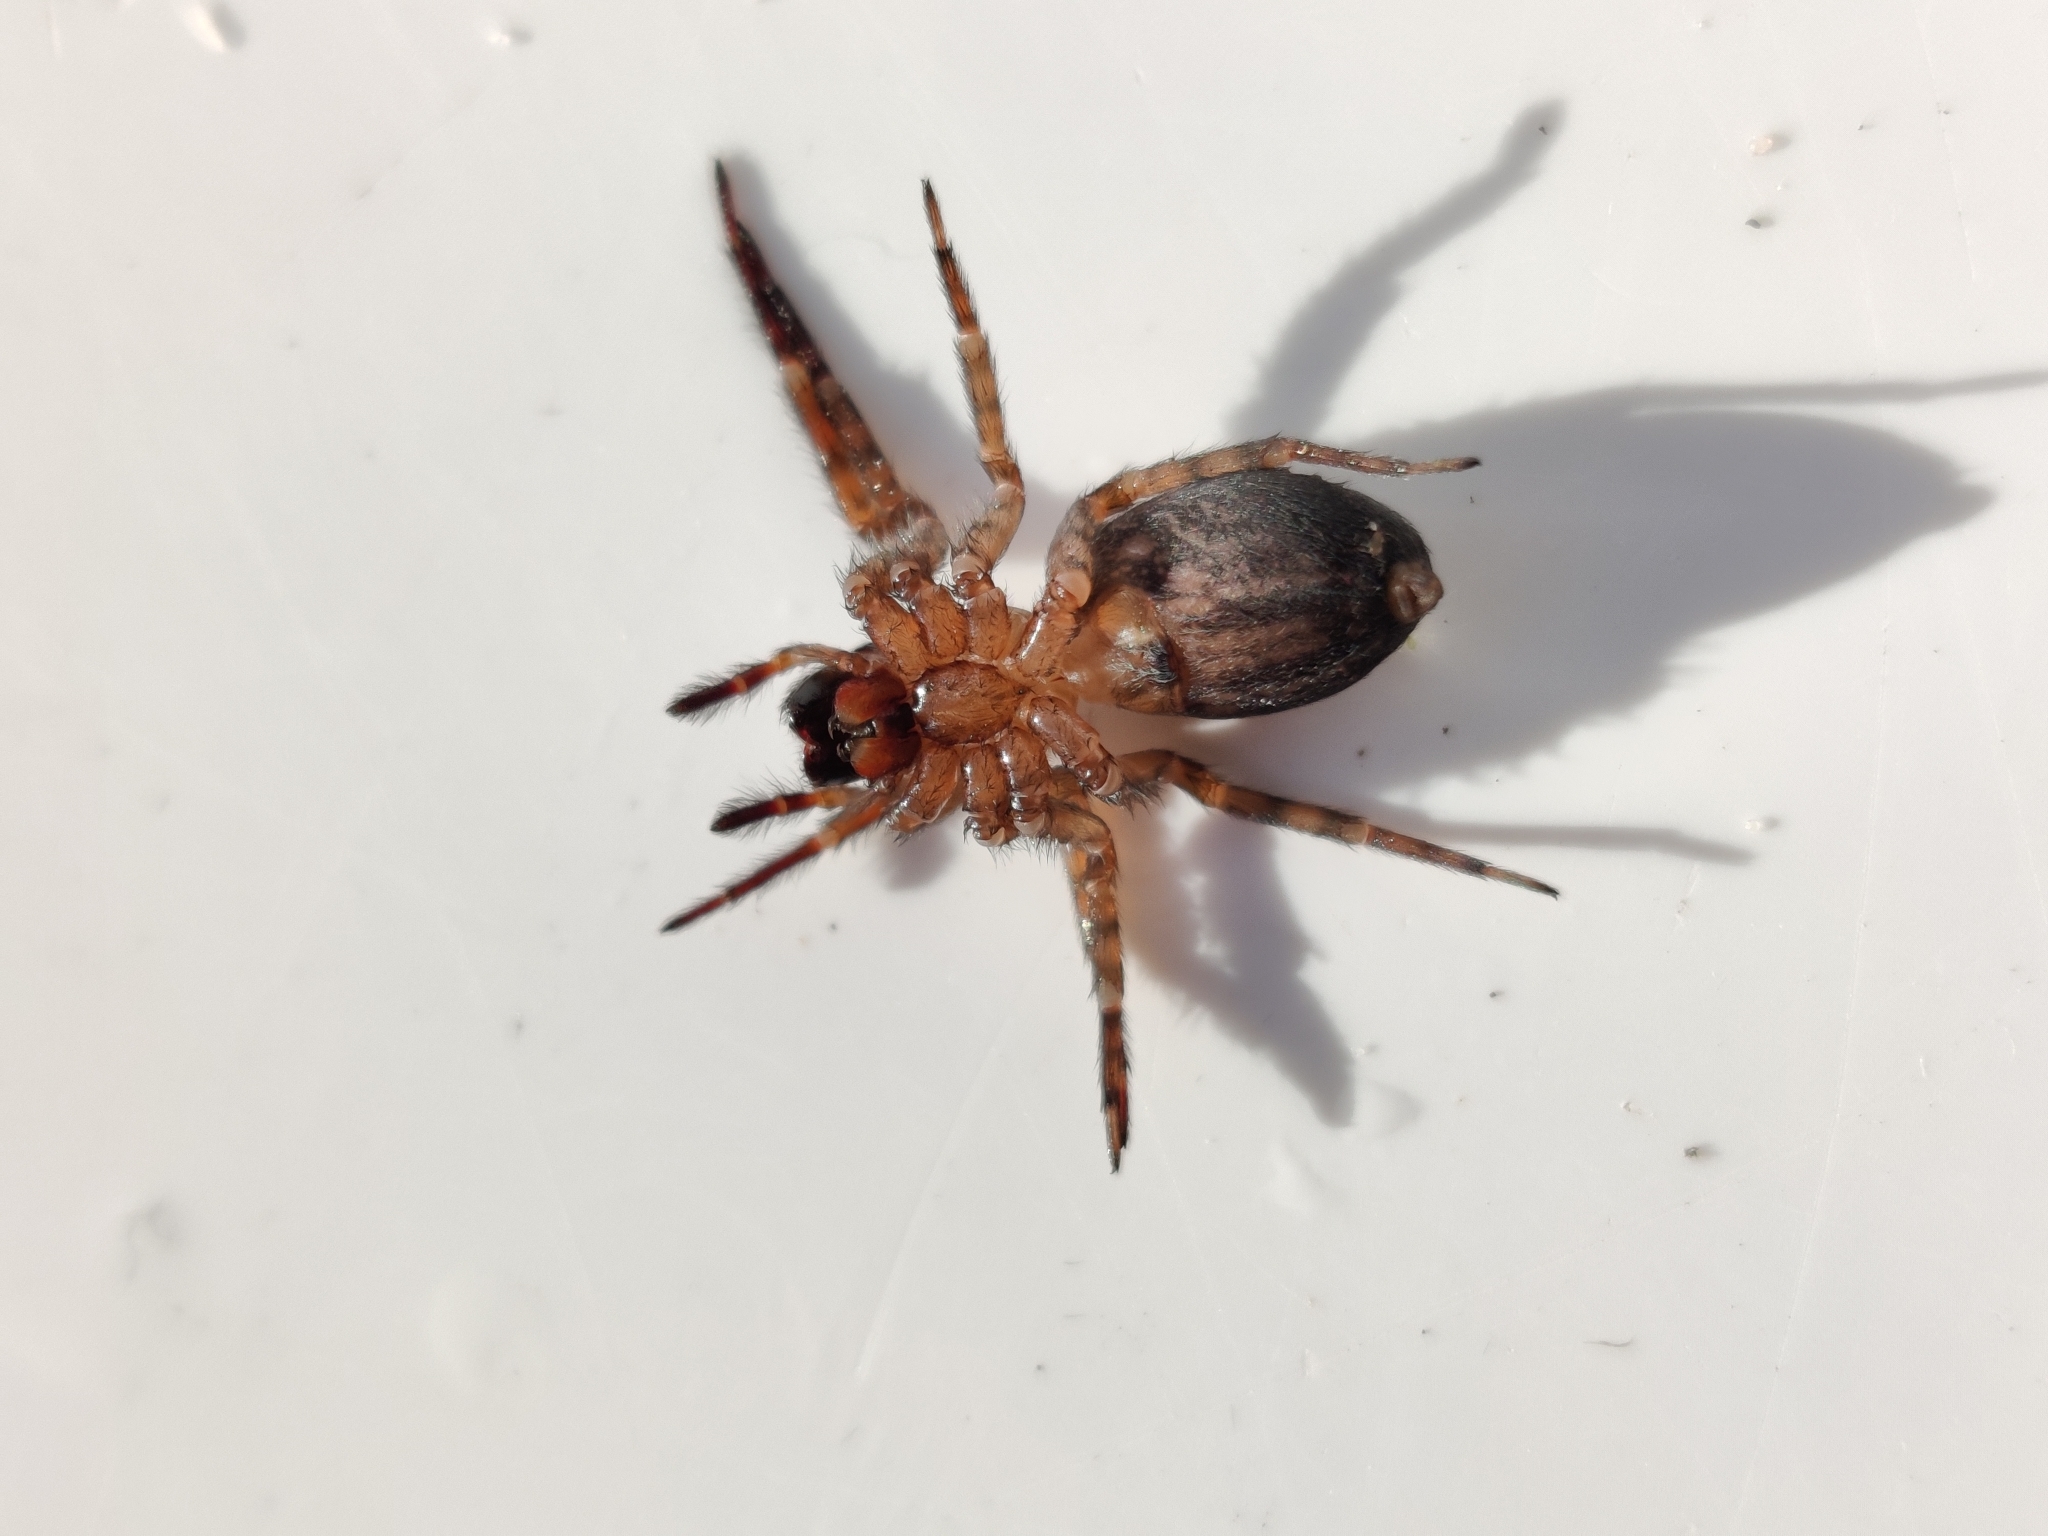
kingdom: Animalia
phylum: Arthropoda
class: Arachnida
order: Araneae
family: Amaurobiidae
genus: Amaurobius
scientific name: Amaurobius similis
